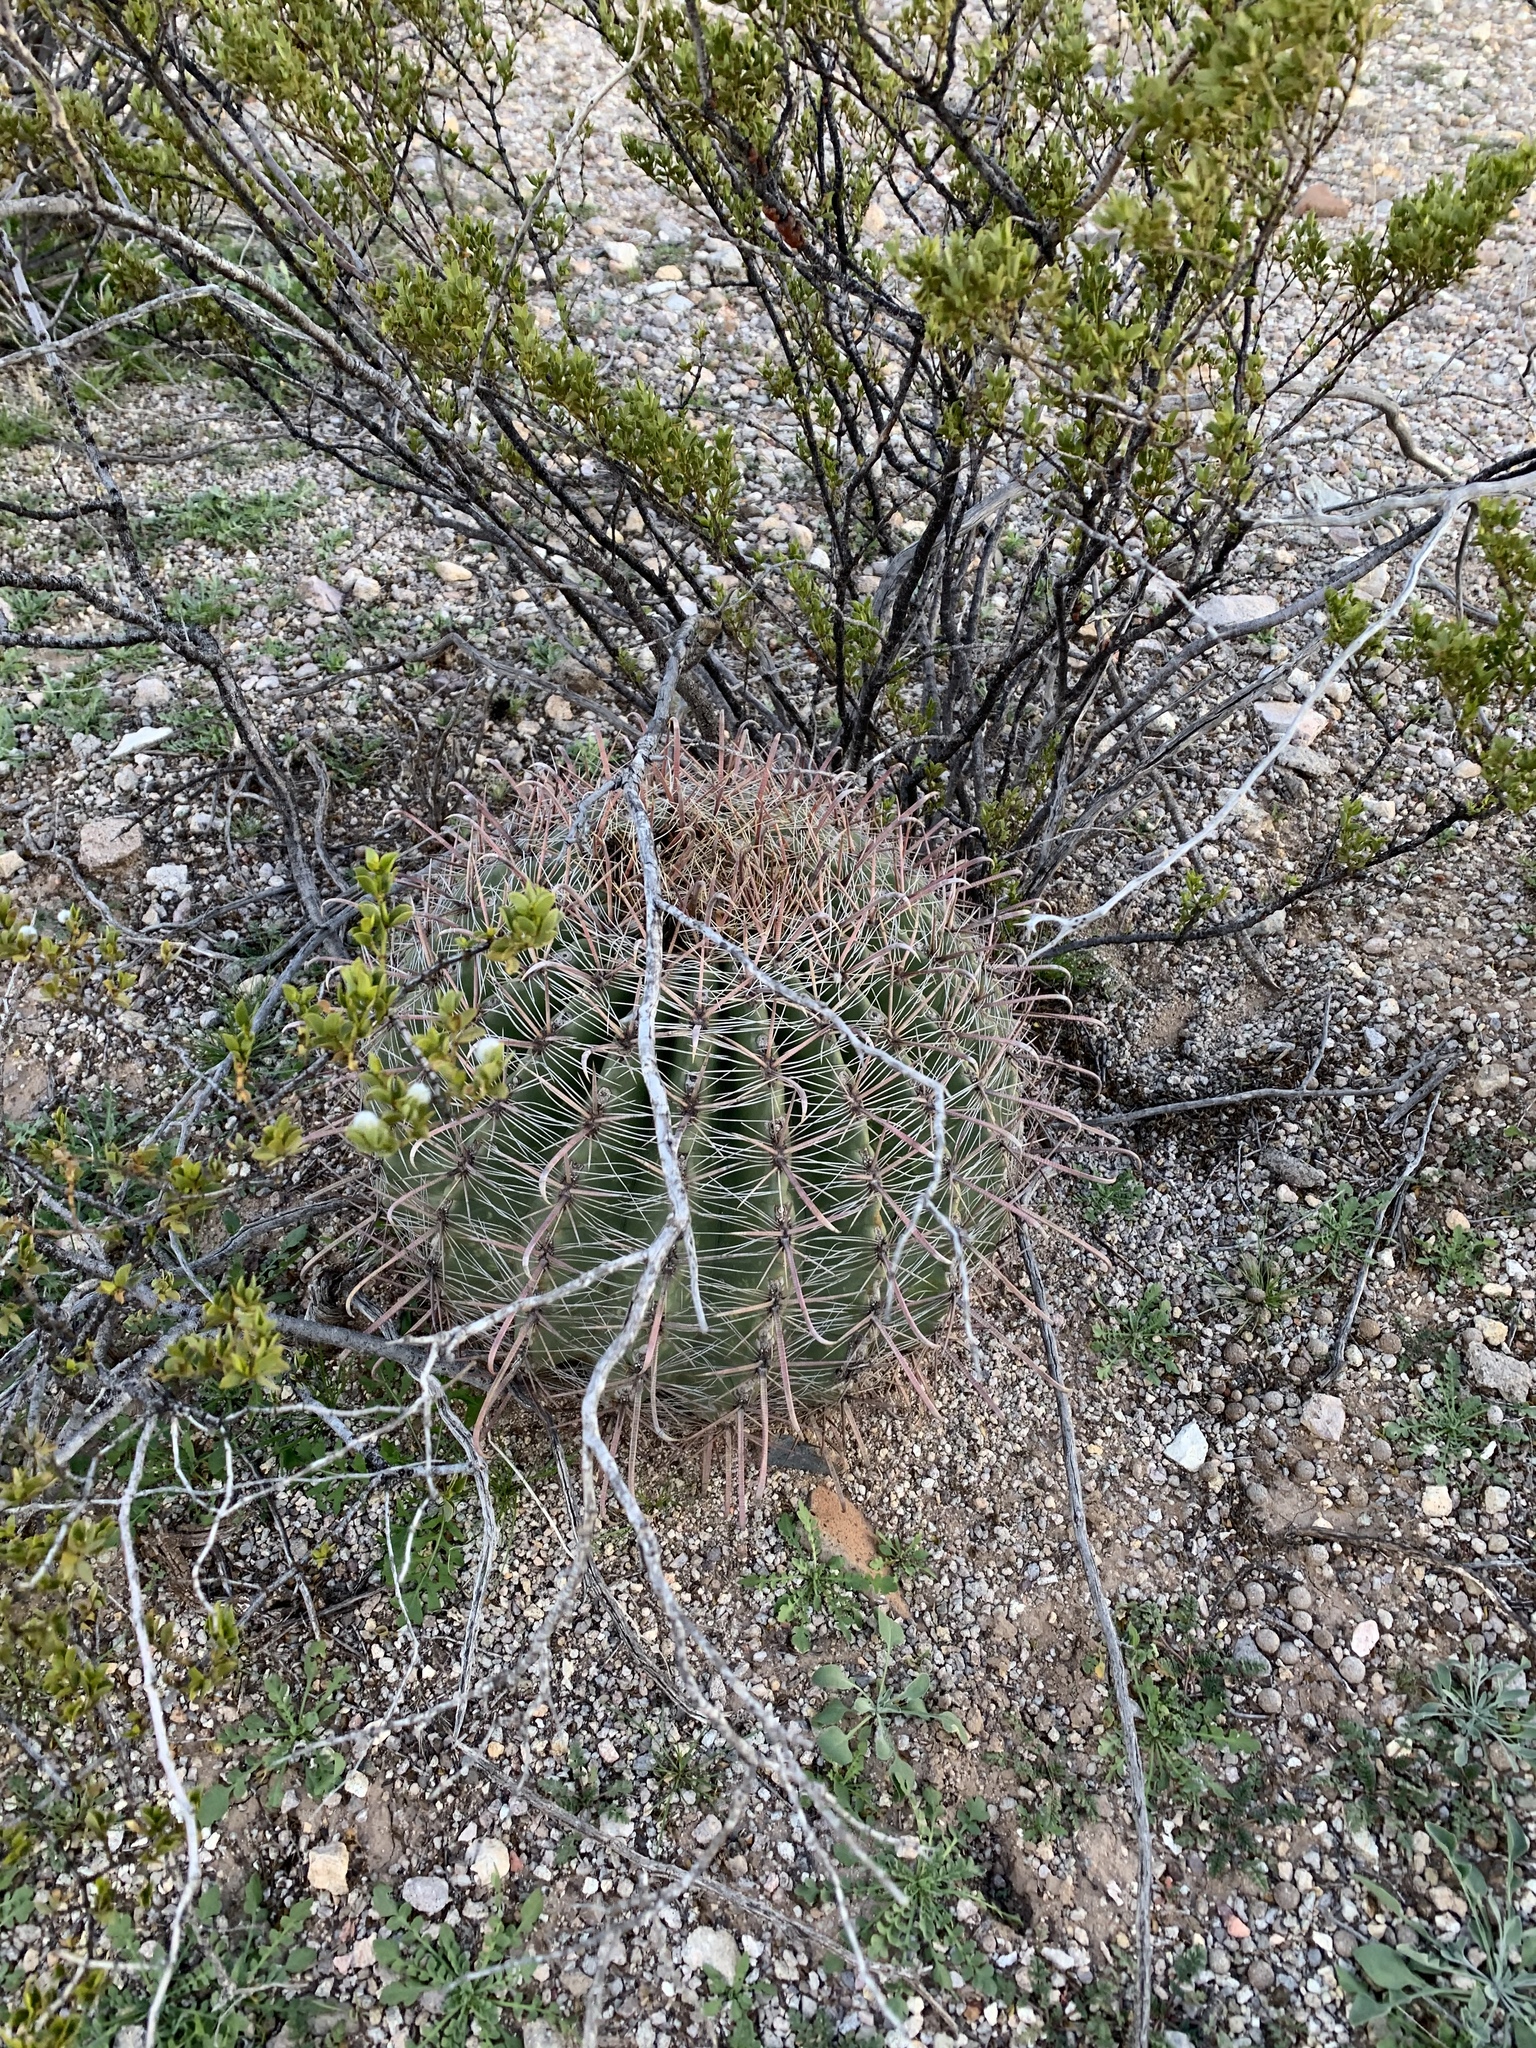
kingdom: Plantae
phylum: Tracheophyta
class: Magnoliopsida
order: Caryophyllales
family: Cactaceae
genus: Ferocactus
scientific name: Ferocactus wislizeni
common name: Candy barrel cactus
